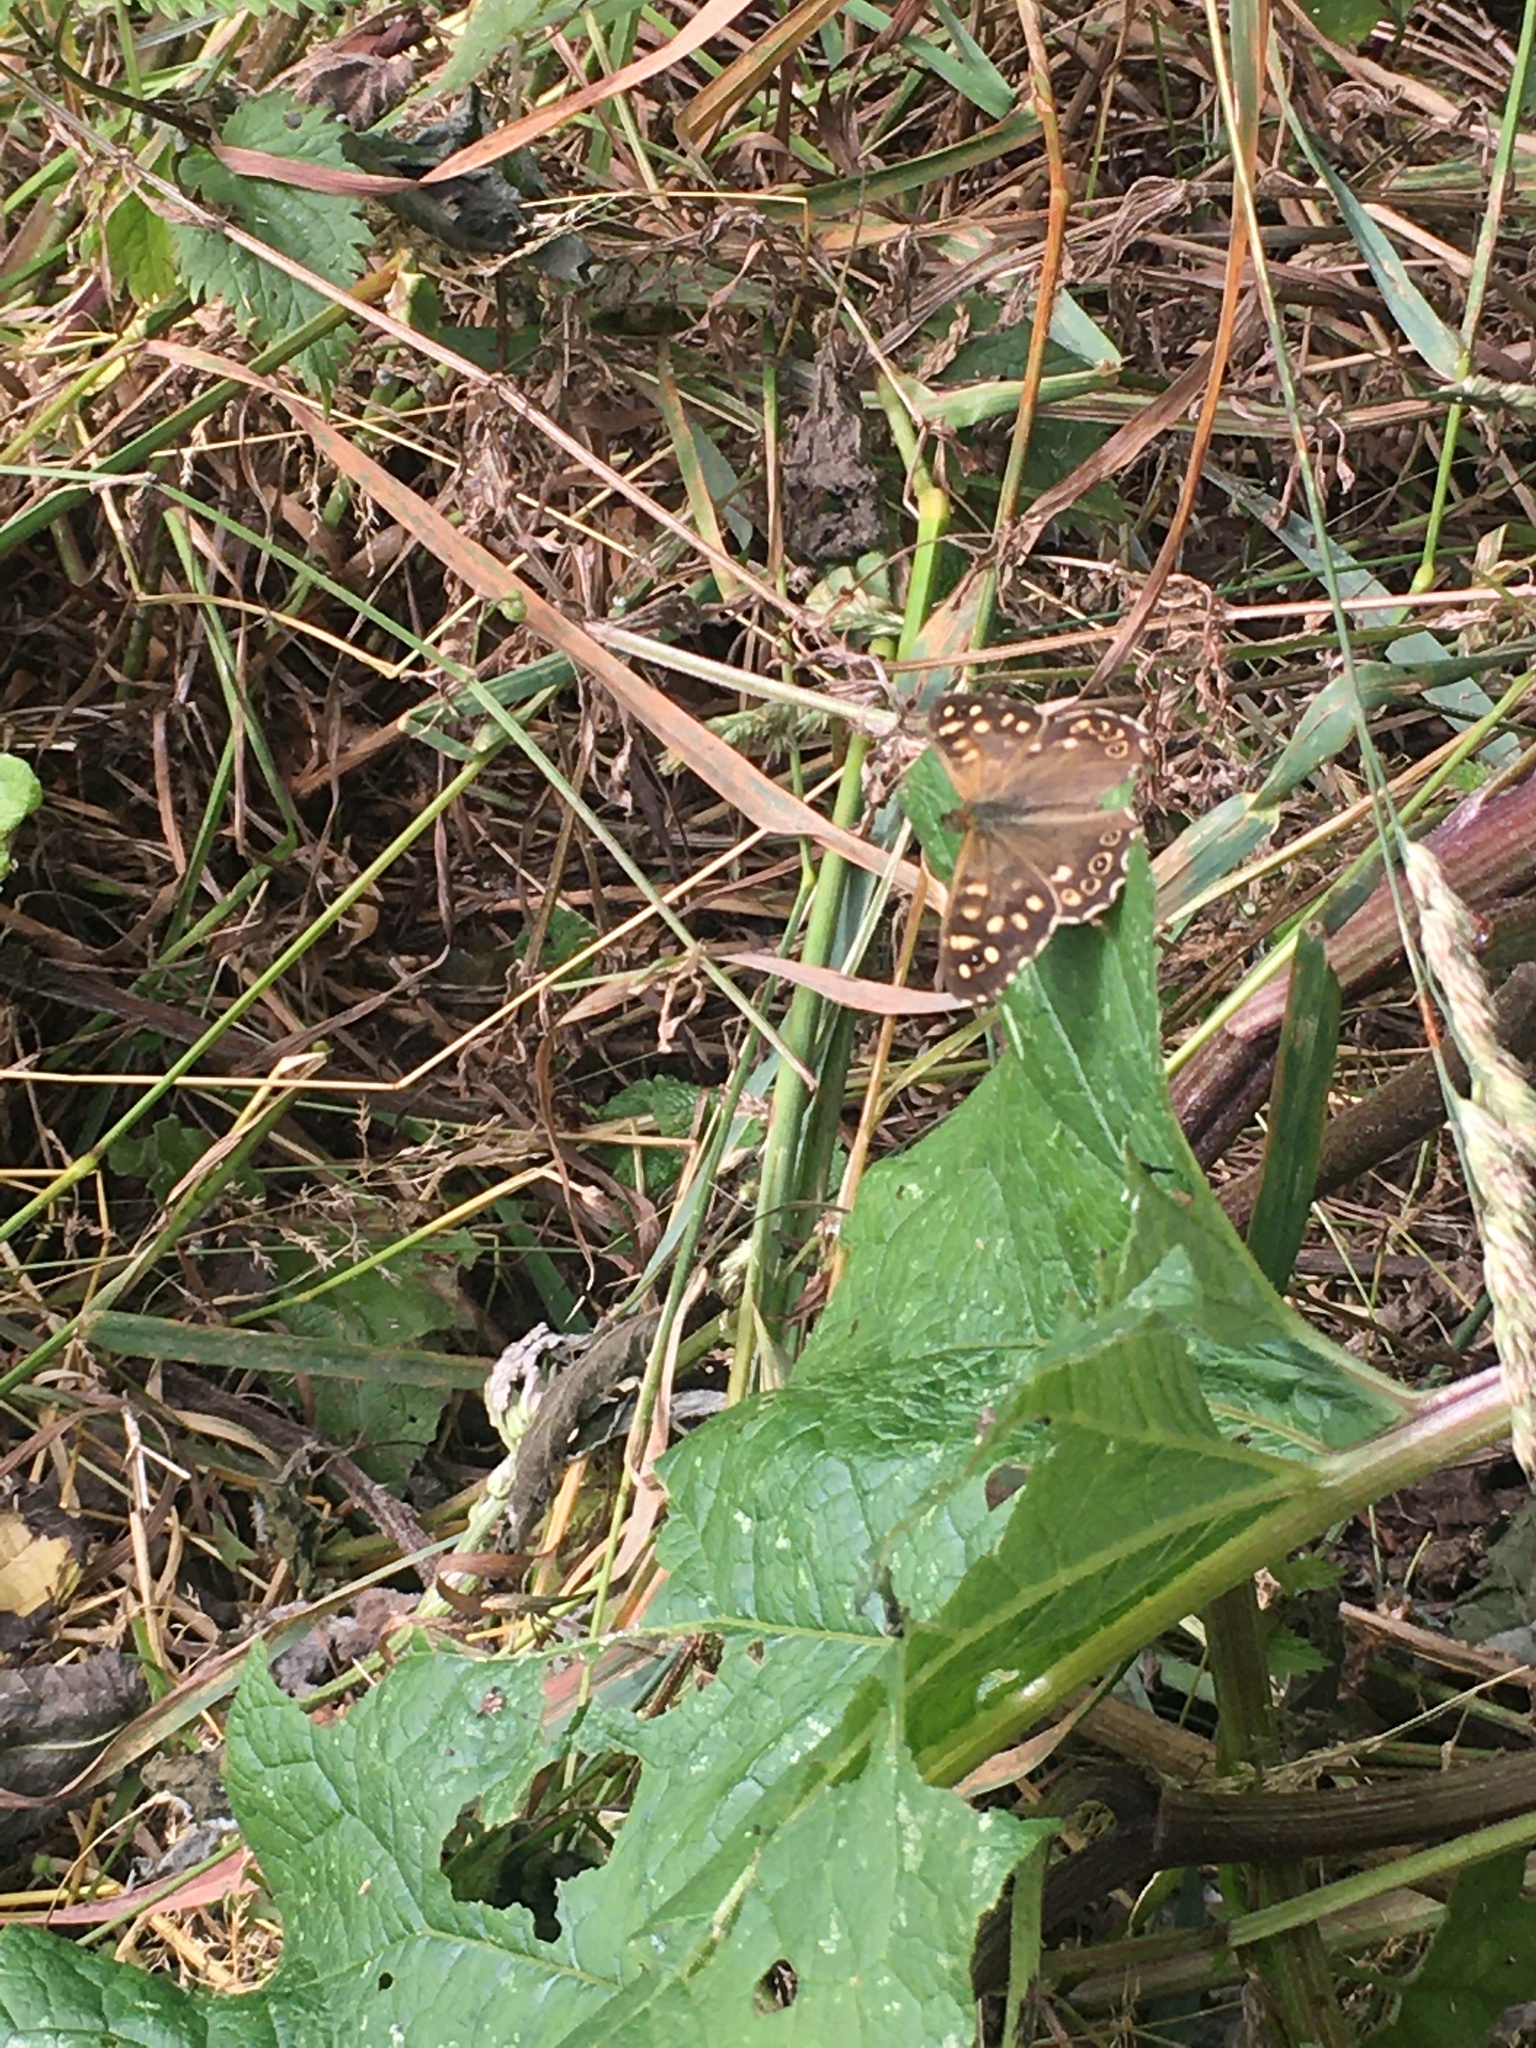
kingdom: Animalia
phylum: Arthropoda
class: Insecta
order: Lepidoptera
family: Nymphalidae
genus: Pararge
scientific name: Pararge aegeria
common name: Speckled wood
